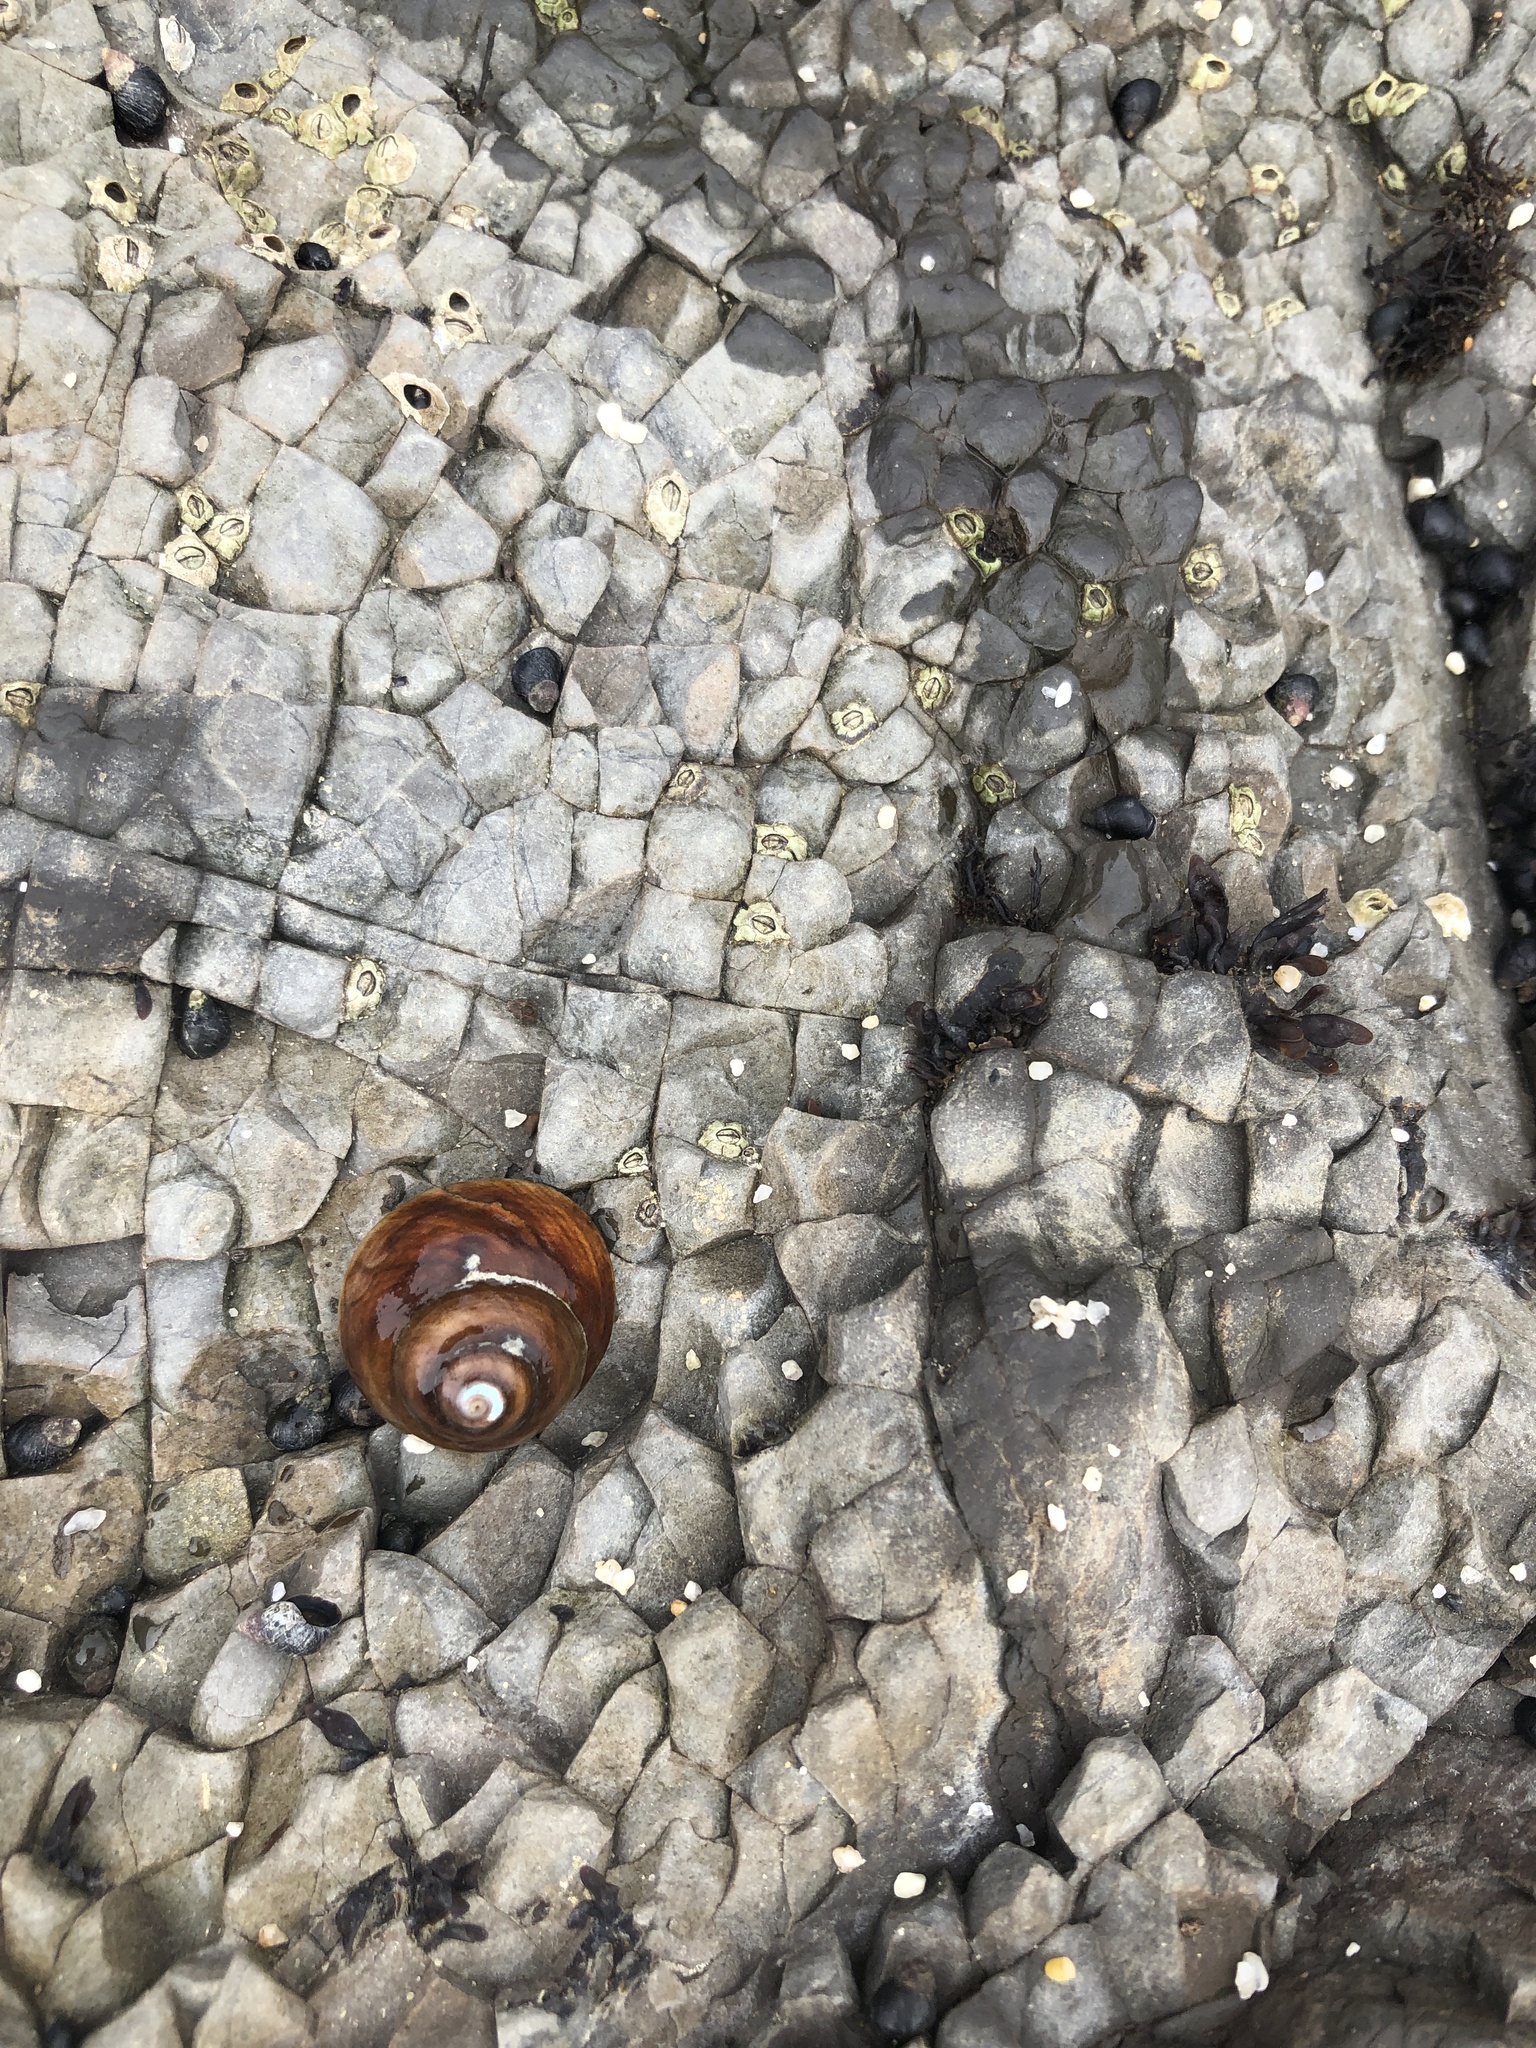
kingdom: Animalia
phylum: Mollusca
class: Gastropoda
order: Trochida
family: Tegulidae
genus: Tegula
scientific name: Tegula brunnea
